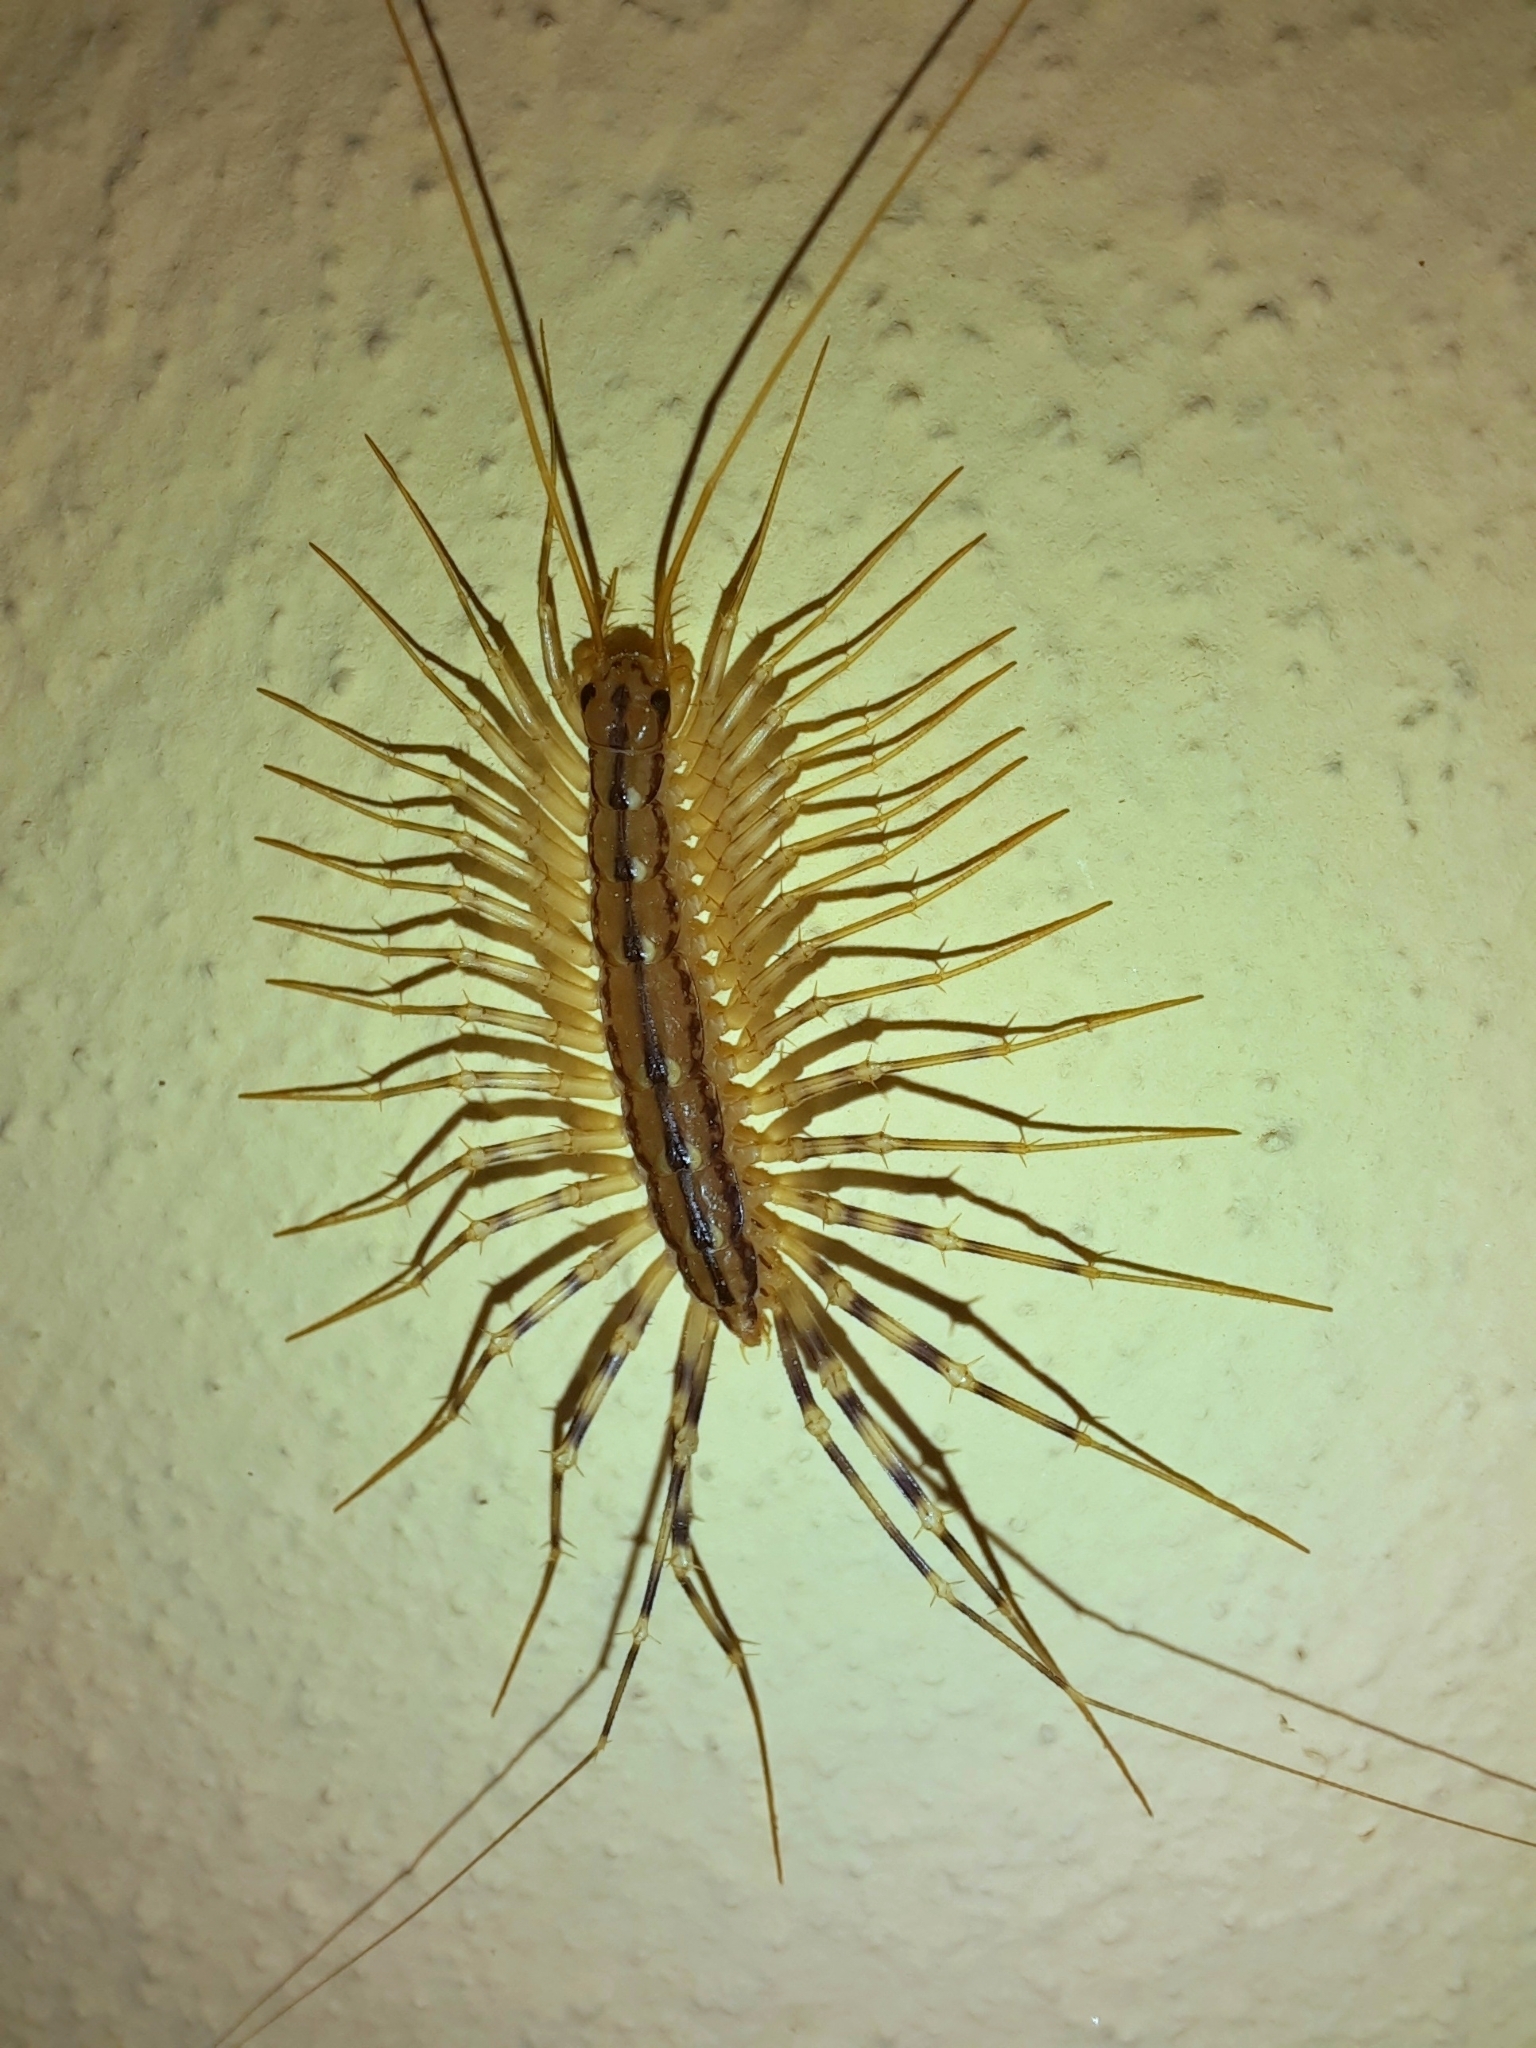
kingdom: Animalia
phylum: Arthropoda
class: Chilopoda
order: Scutigeromorpha
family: Scutigeridae
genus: Scutigera
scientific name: Scutigera coleoptrata
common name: House centipede
